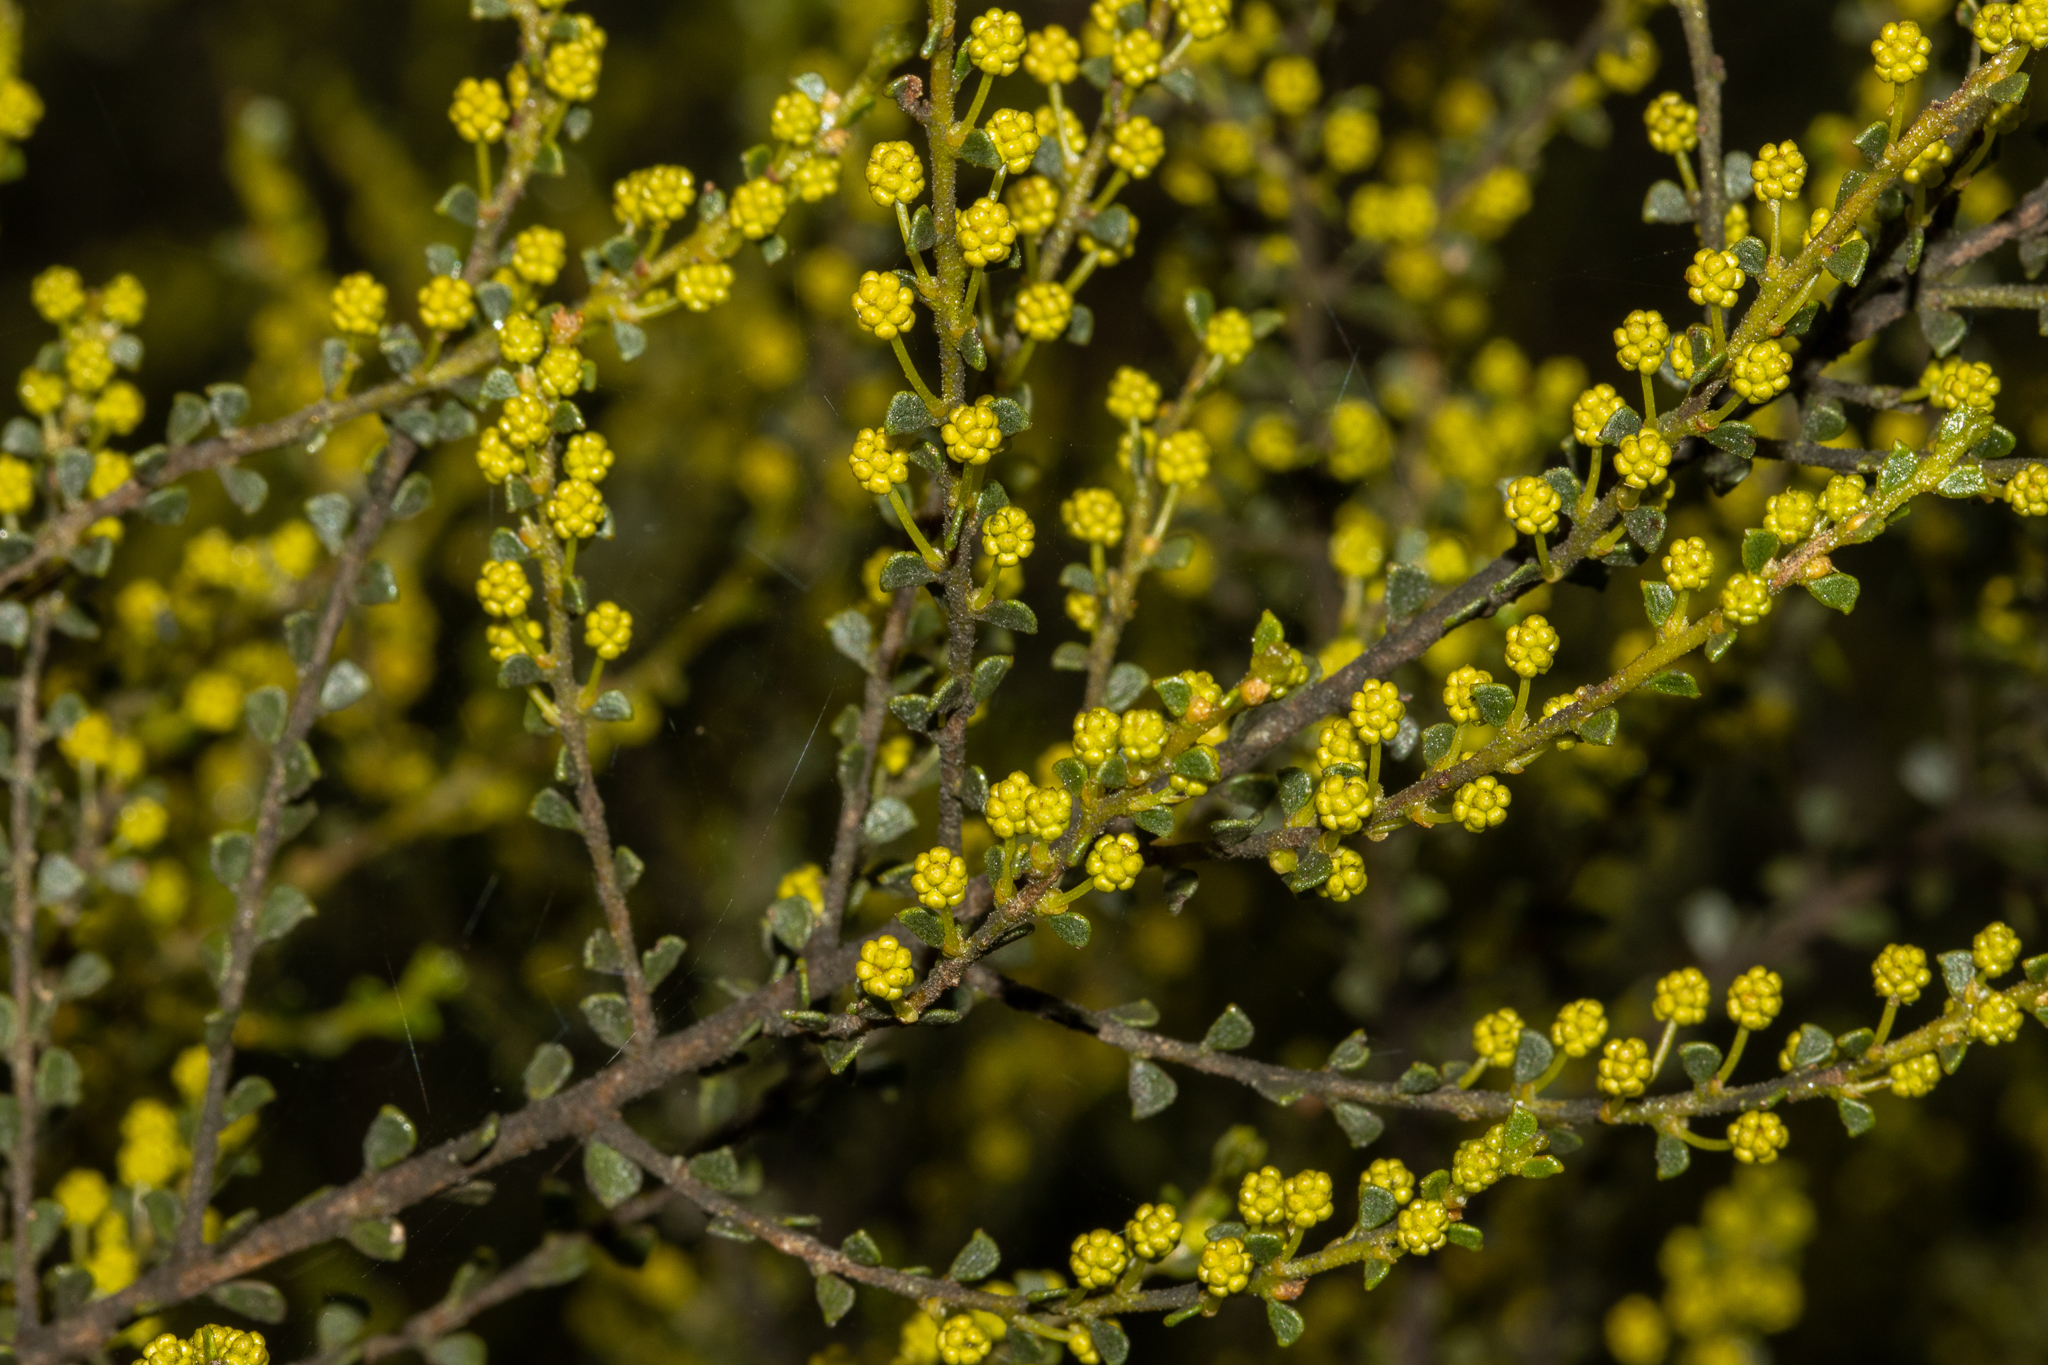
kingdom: Plantae
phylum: Tracheophyta
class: Magnoliopsida
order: Fabales
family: Fabaceae
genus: Acacia
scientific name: Acacia rhetinocarpa
